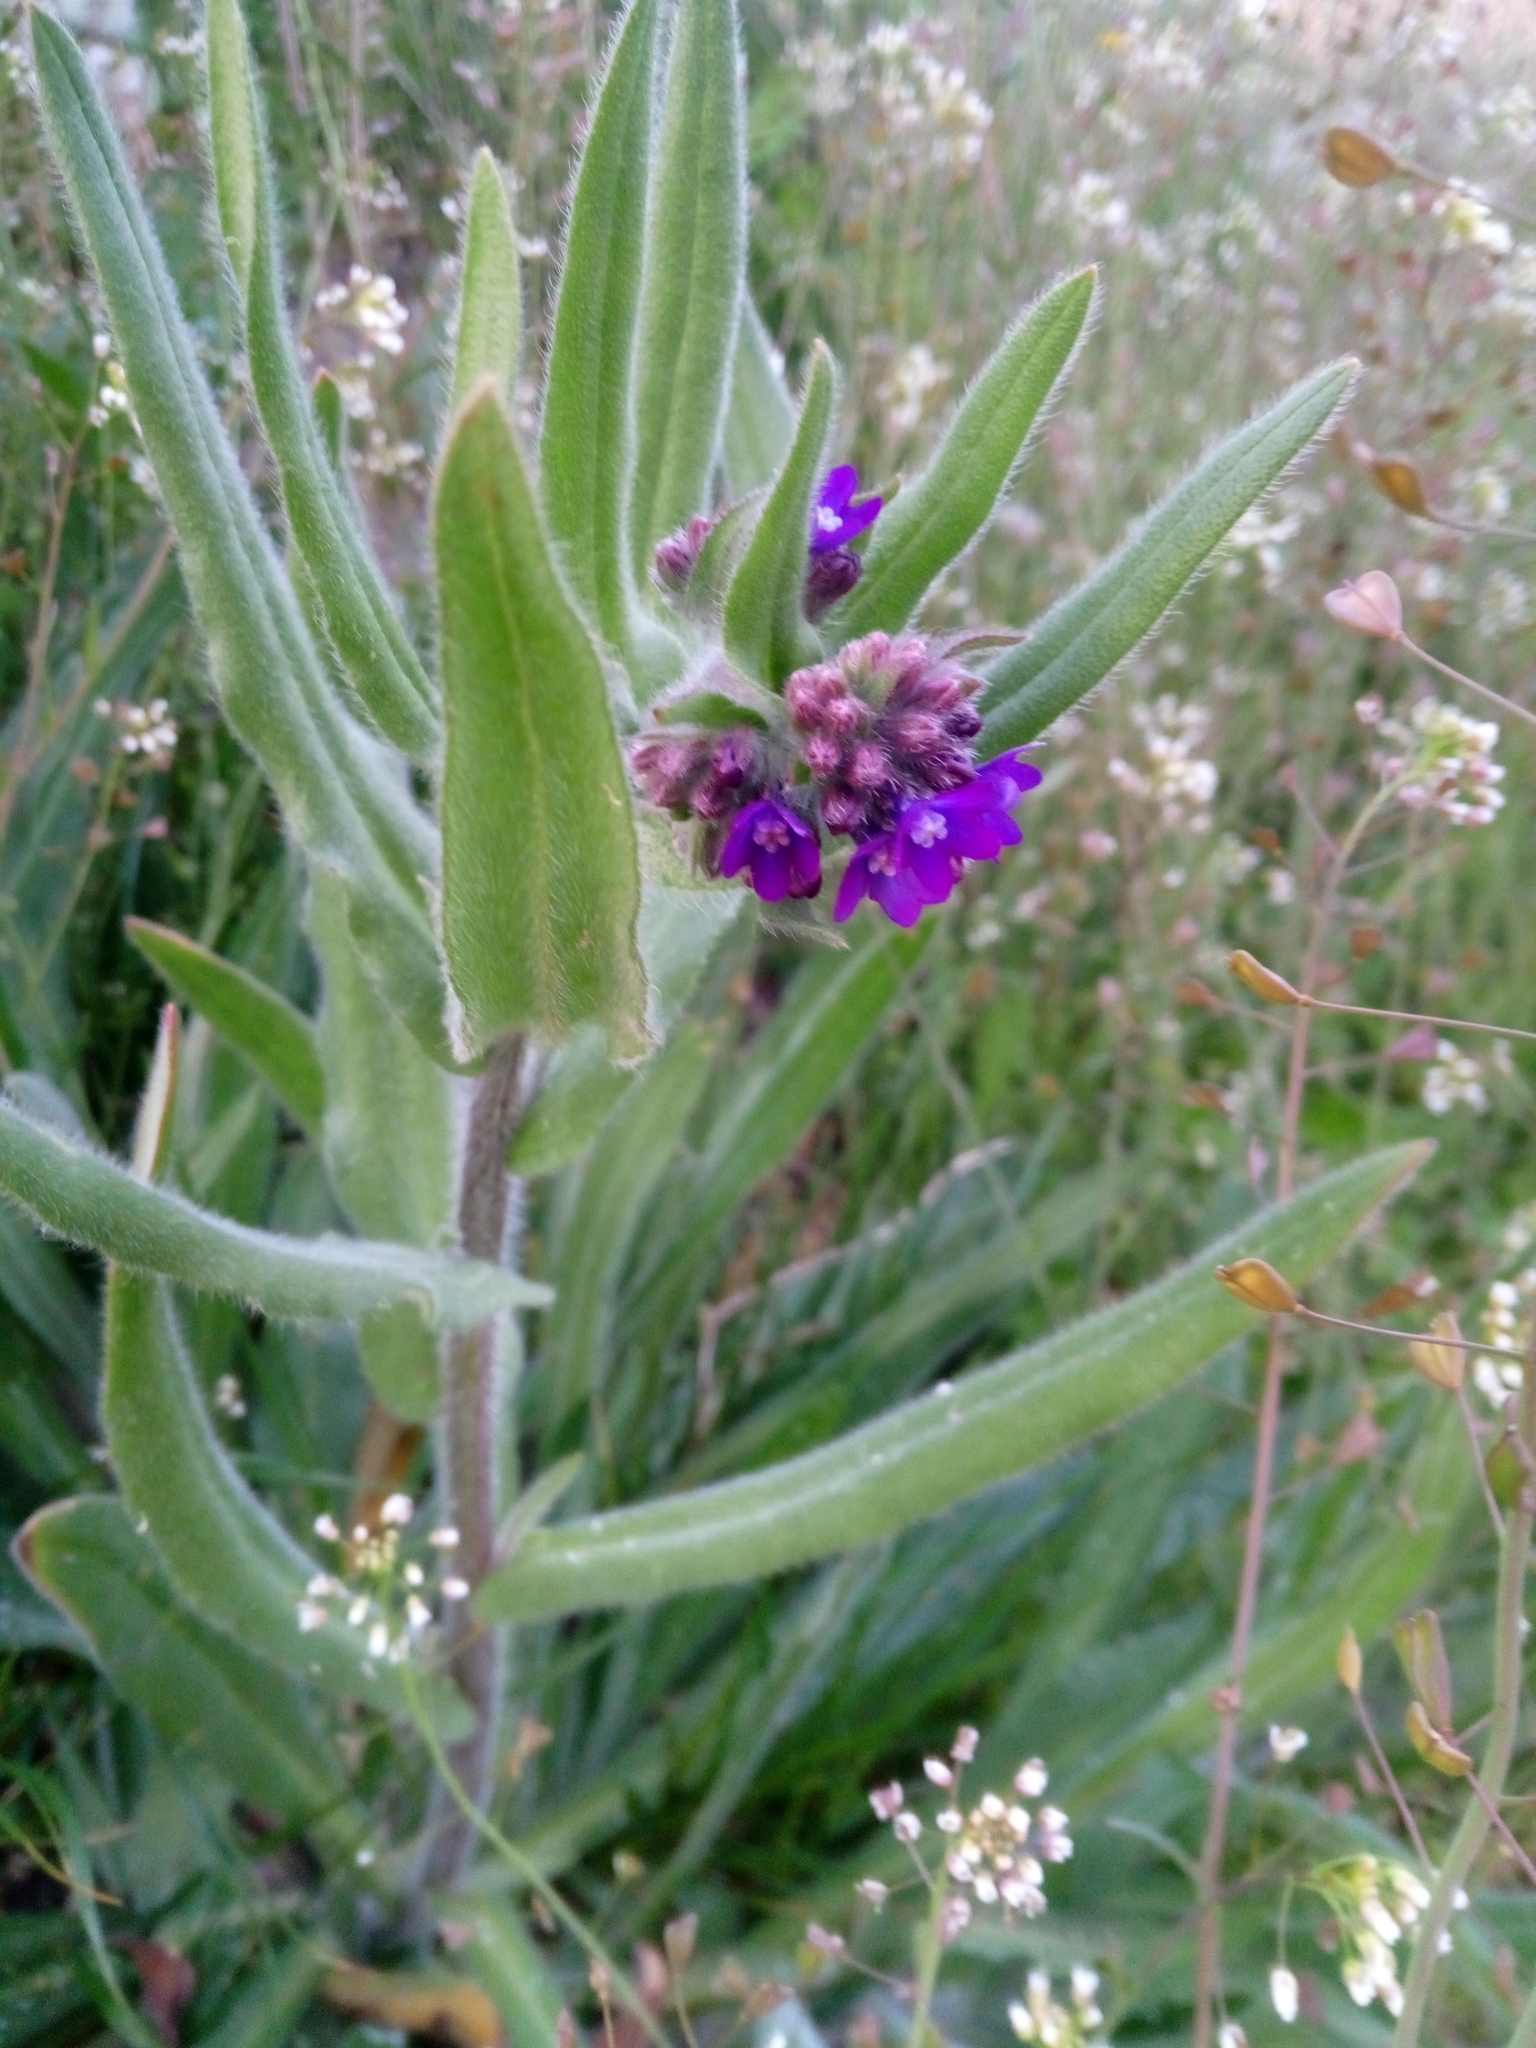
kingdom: Plantae
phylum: Tracheophyta
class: Magnoliopsida
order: Boraginales
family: Boraginaceae
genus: Anchusa
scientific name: Anchusa officinalis
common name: Alkanet
